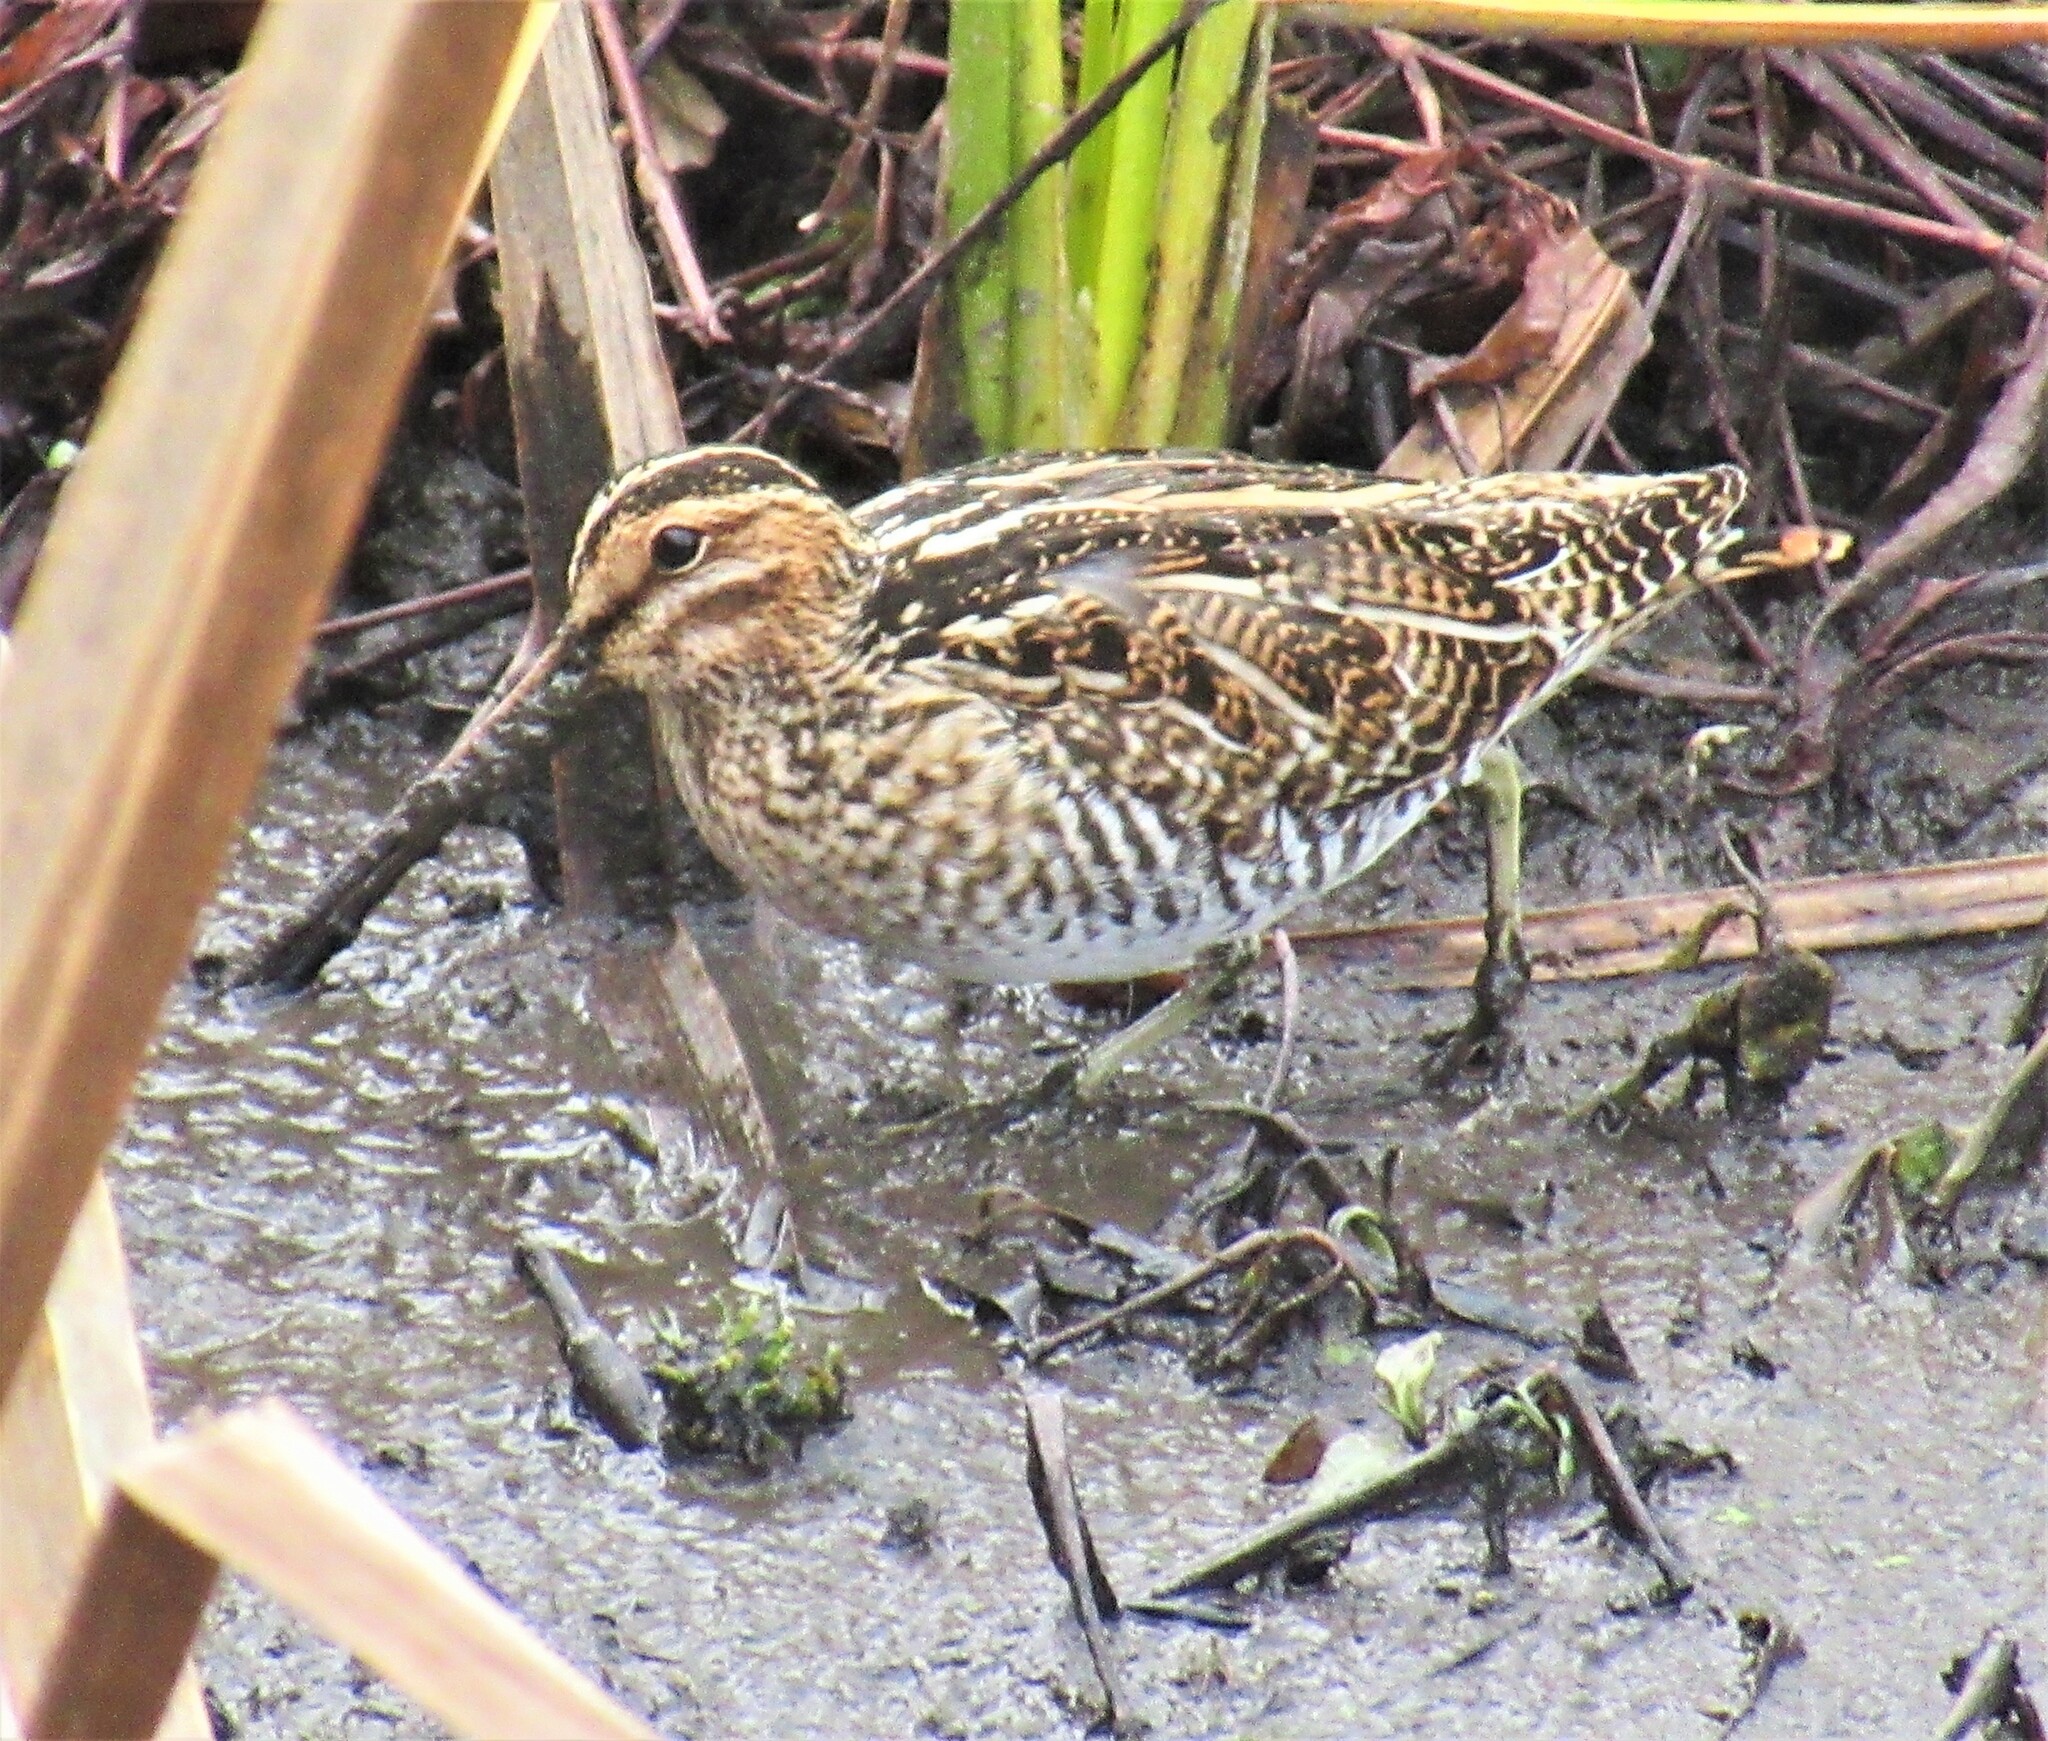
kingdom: Animalia
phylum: Chordata
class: Aves
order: Charadriiformes
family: Scolopacidae
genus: Gallinago
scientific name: Gallinago delicata
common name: Wilson's snipe
